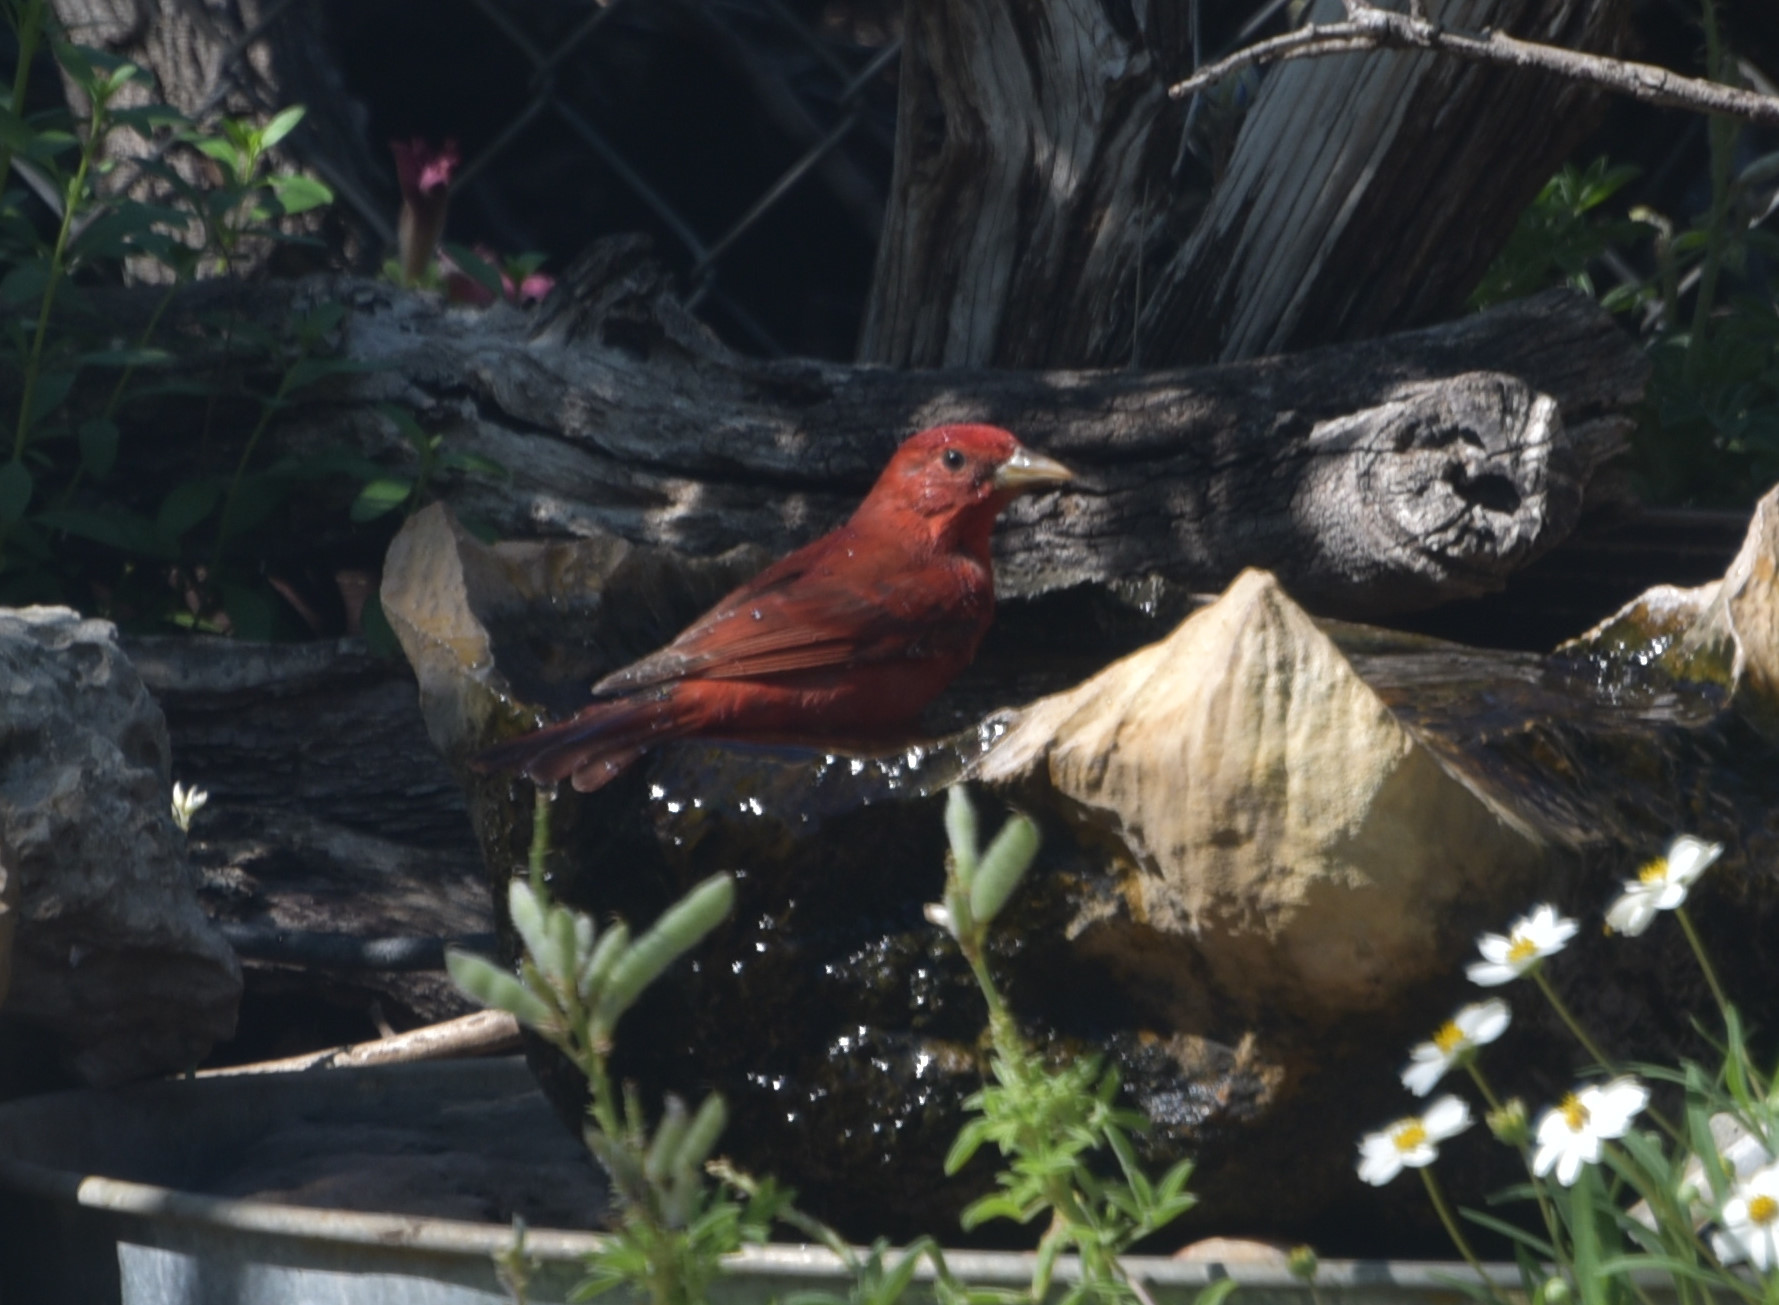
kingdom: Animalia
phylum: Chordata
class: Aves
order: Passeriformes
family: Cardinalidae
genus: Piranga
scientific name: Piranga rubra
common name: Summer tanager
